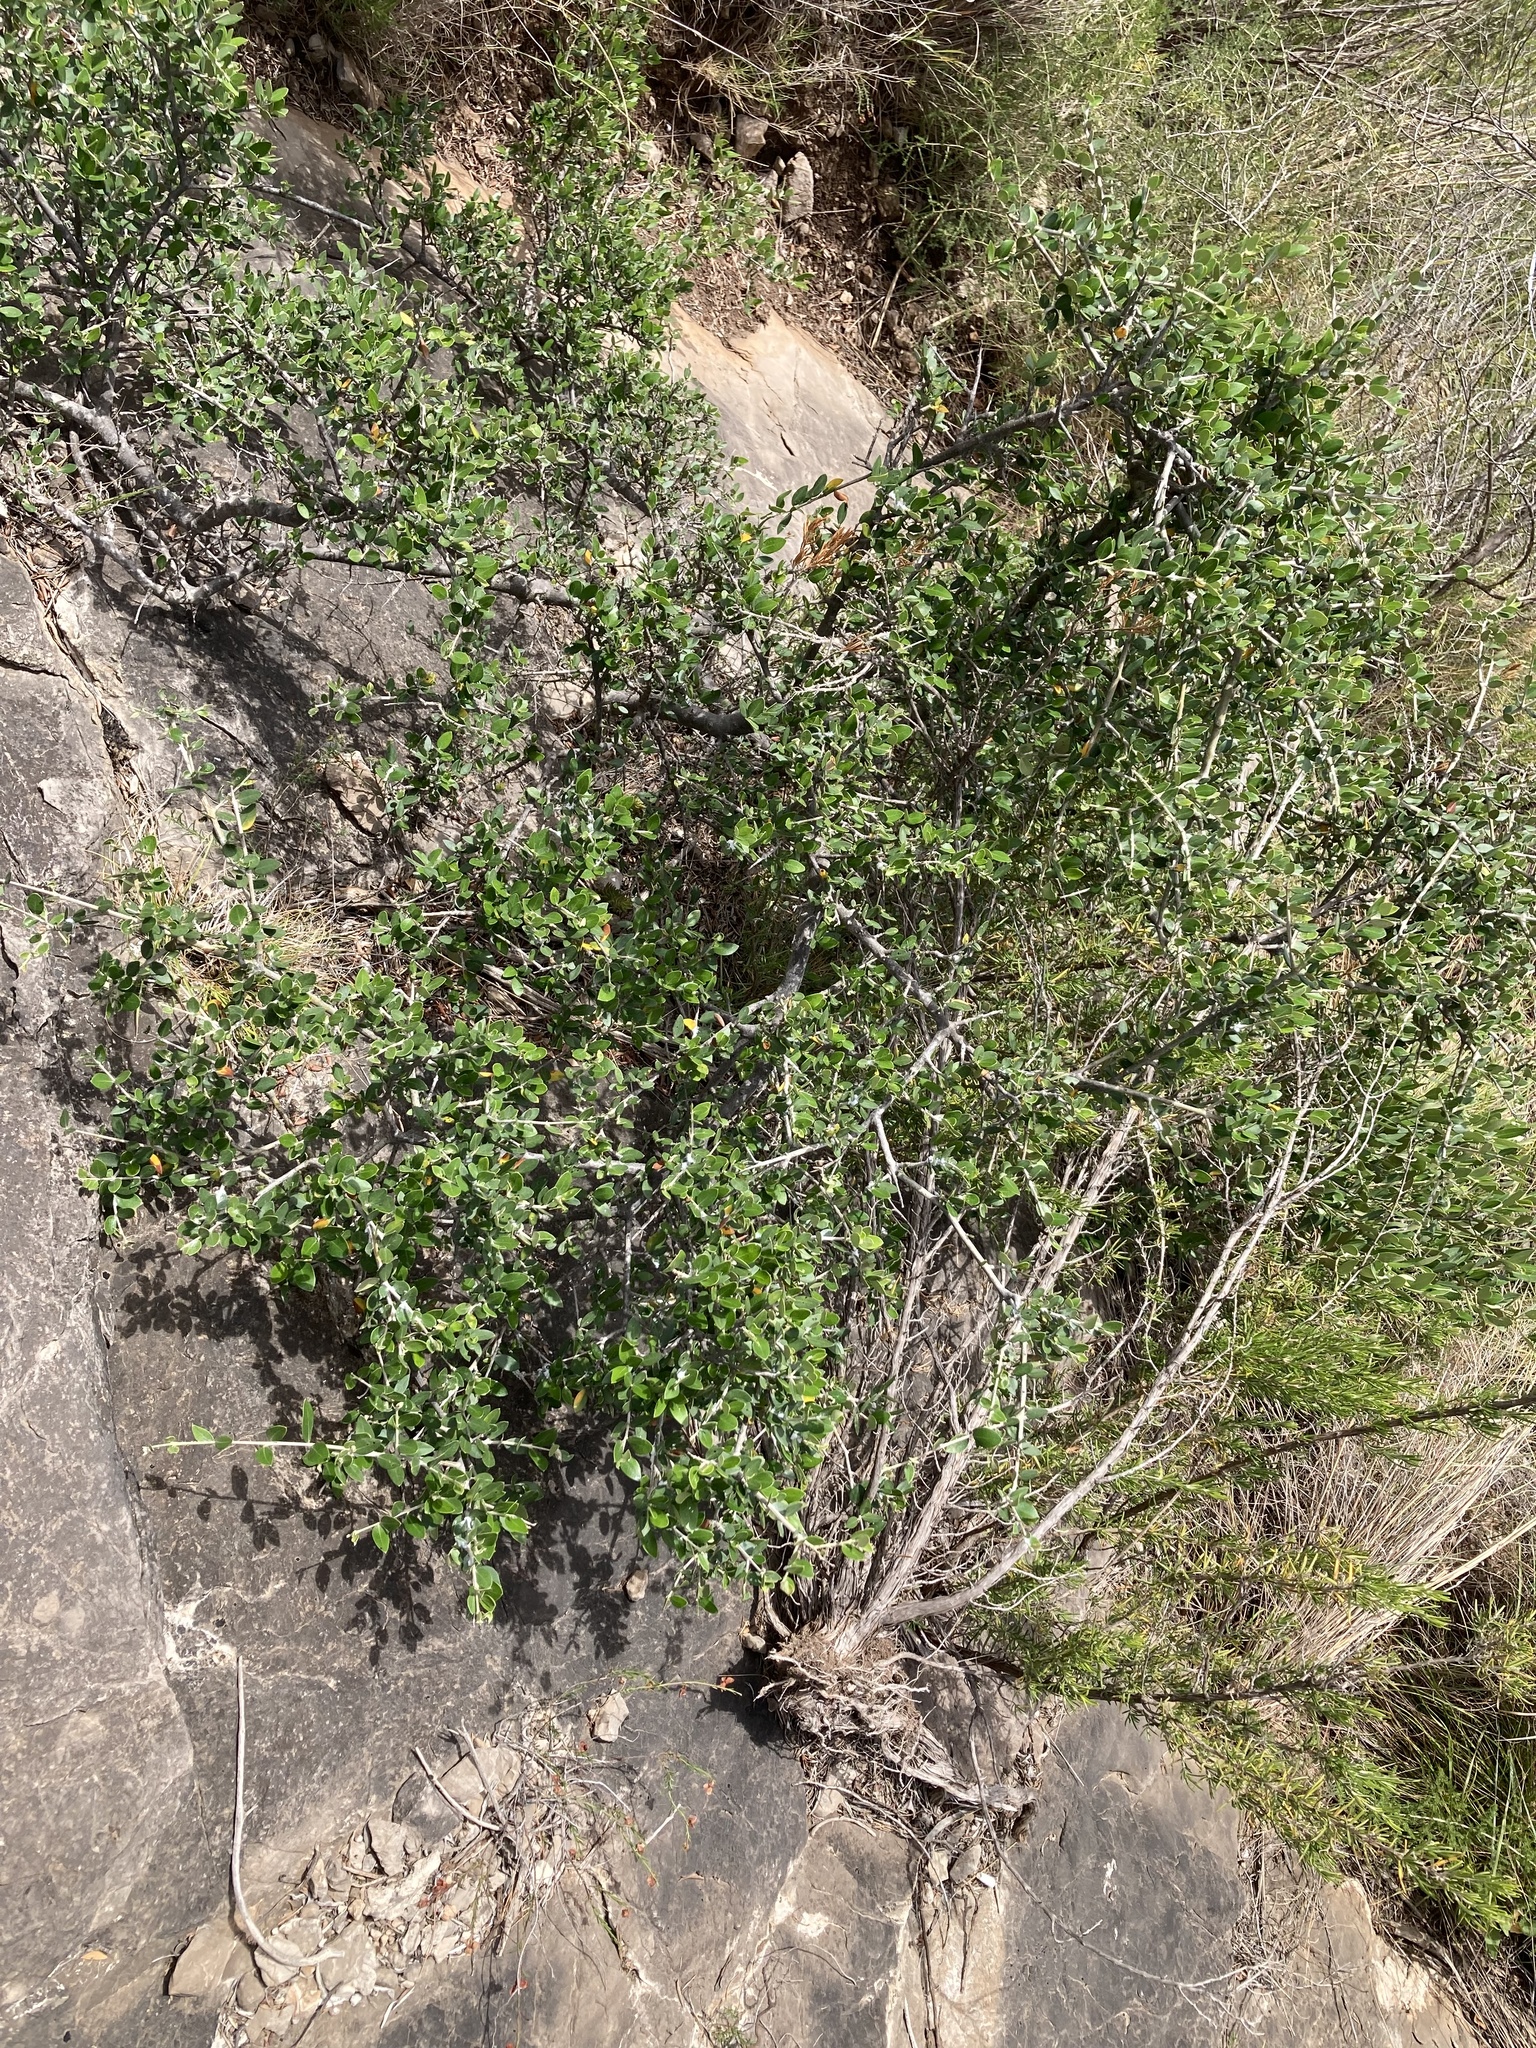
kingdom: Plantae
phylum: Tracheophyta
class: Magnoliopsida
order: Lamiales
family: Oleaceae
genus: Olea
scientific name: Olea europaea
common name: Olive
